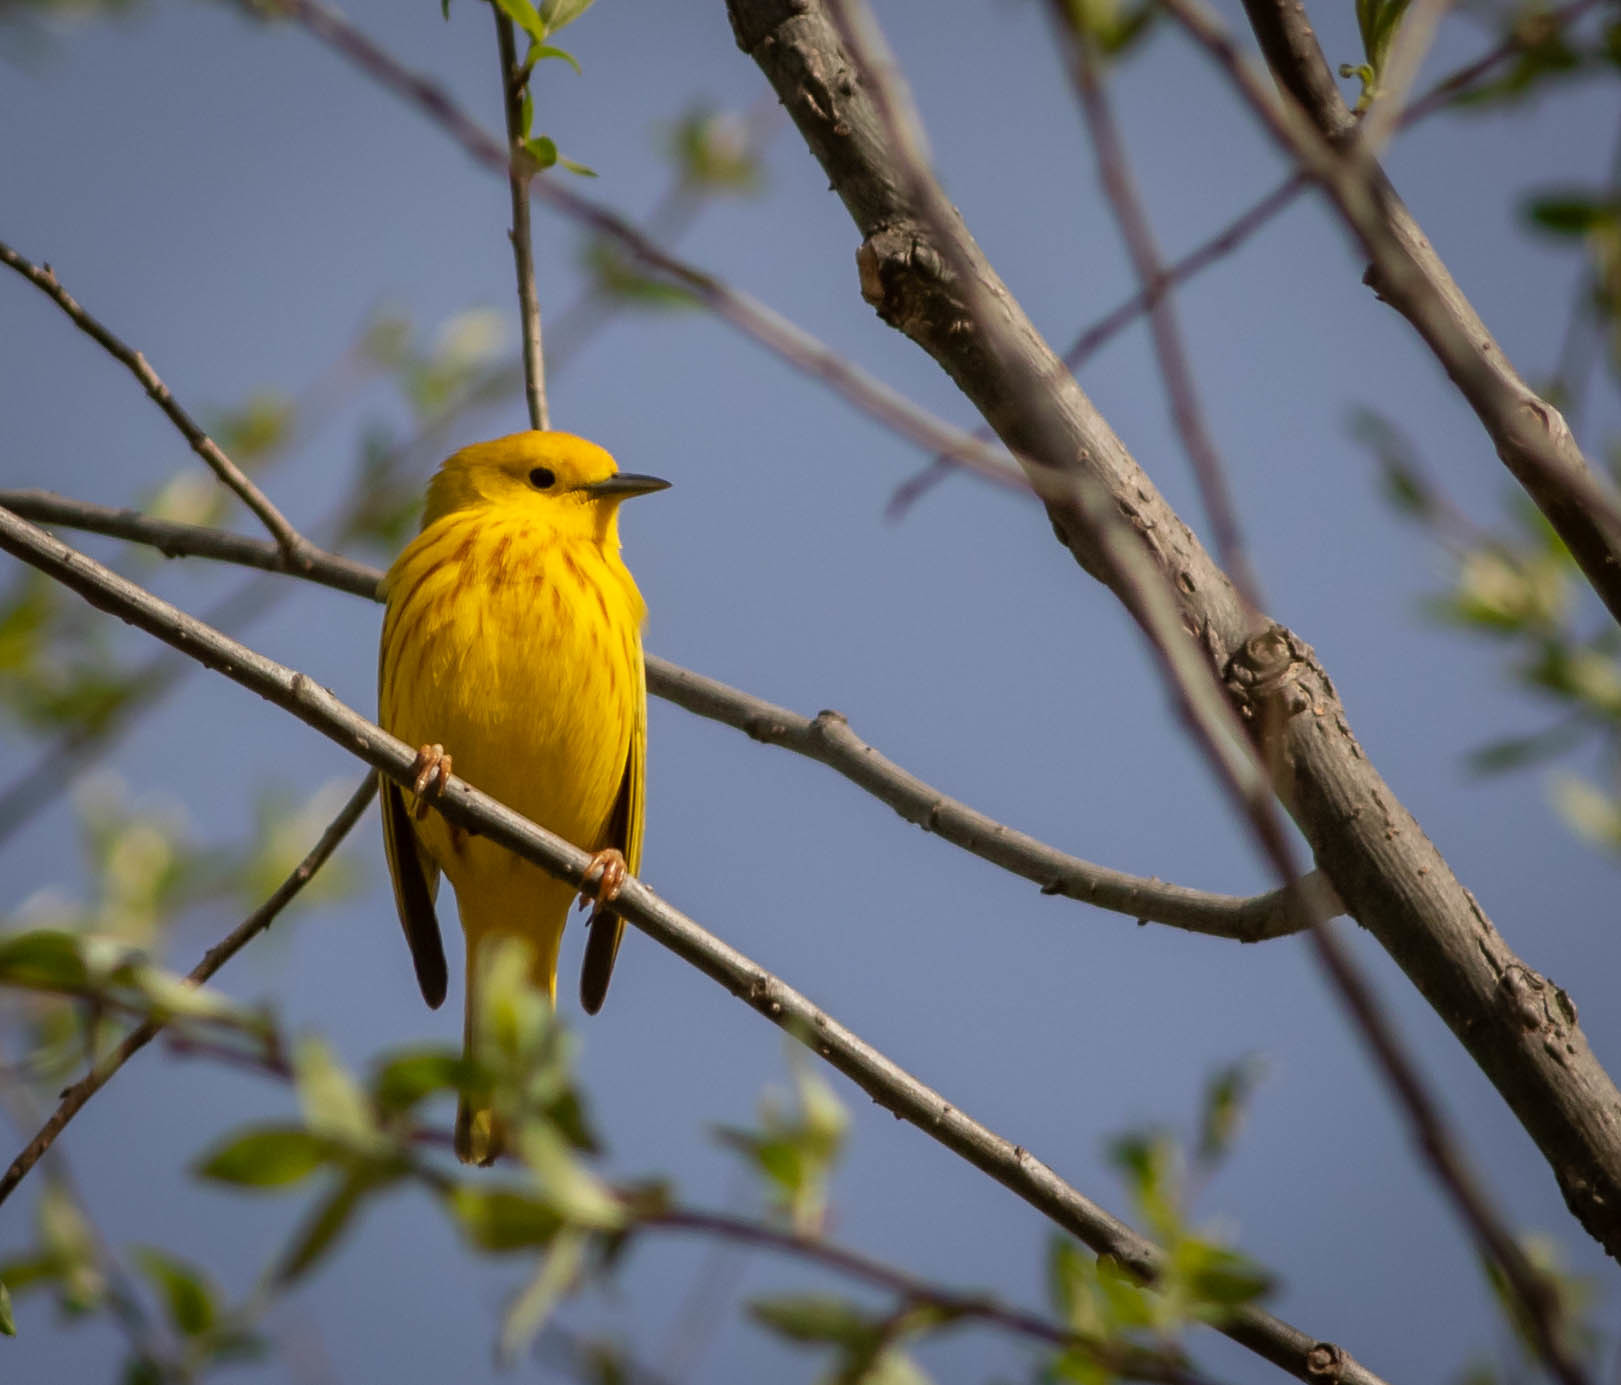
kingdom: Animalia
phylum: Chordata
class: Aves
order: Passeriformes
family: Parulidae
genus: Setophaga
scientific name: Setophaga petechia
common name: Yellow warbler
